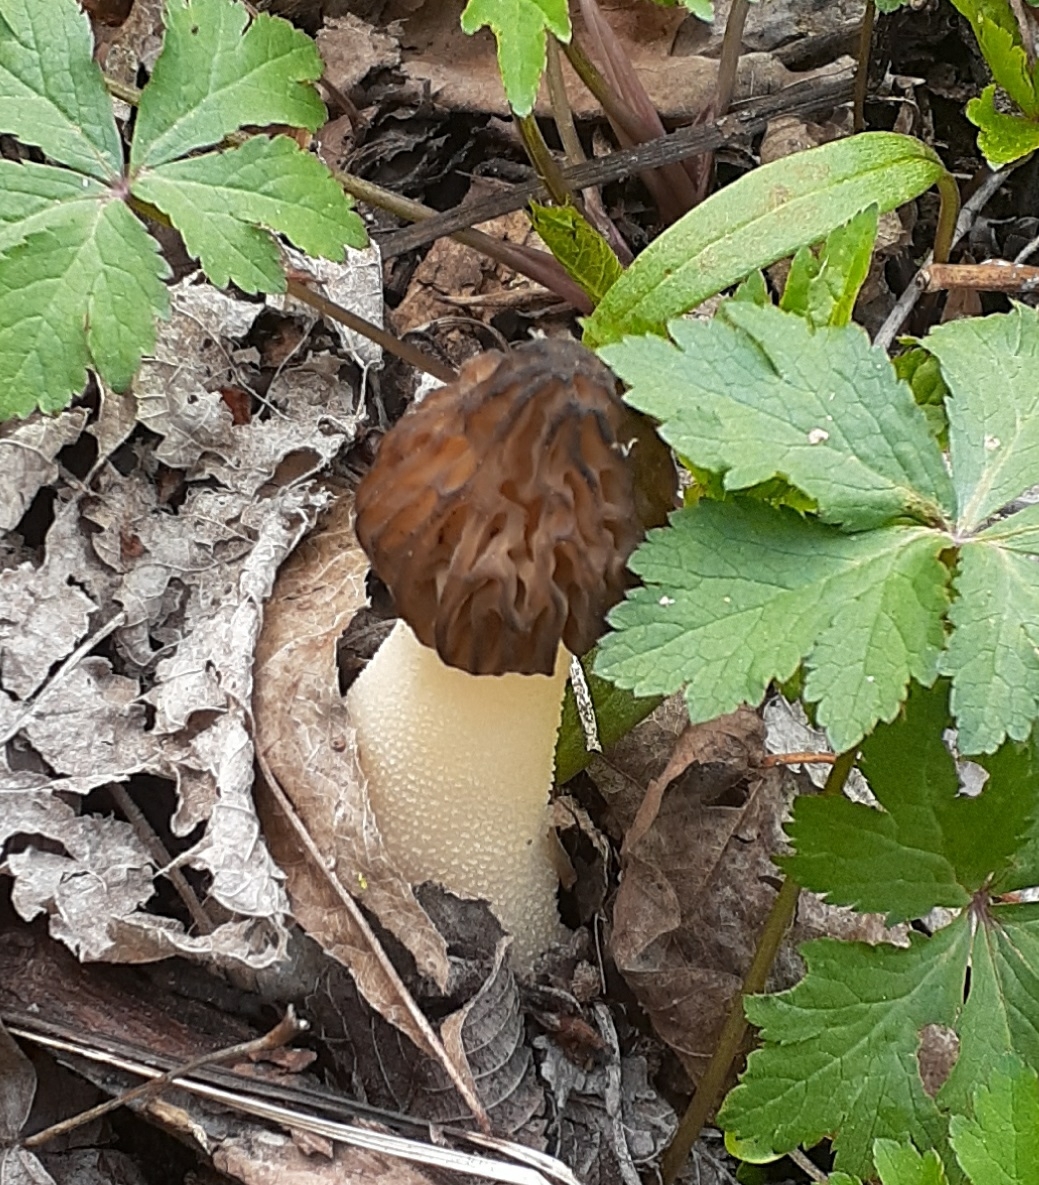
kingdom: Fungi
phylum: Ascomycota
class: Pezizomycetes
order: Pezizales
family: Morchellaceae
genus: Morchella
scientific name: Morchella punctipes
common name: Half-free morel
